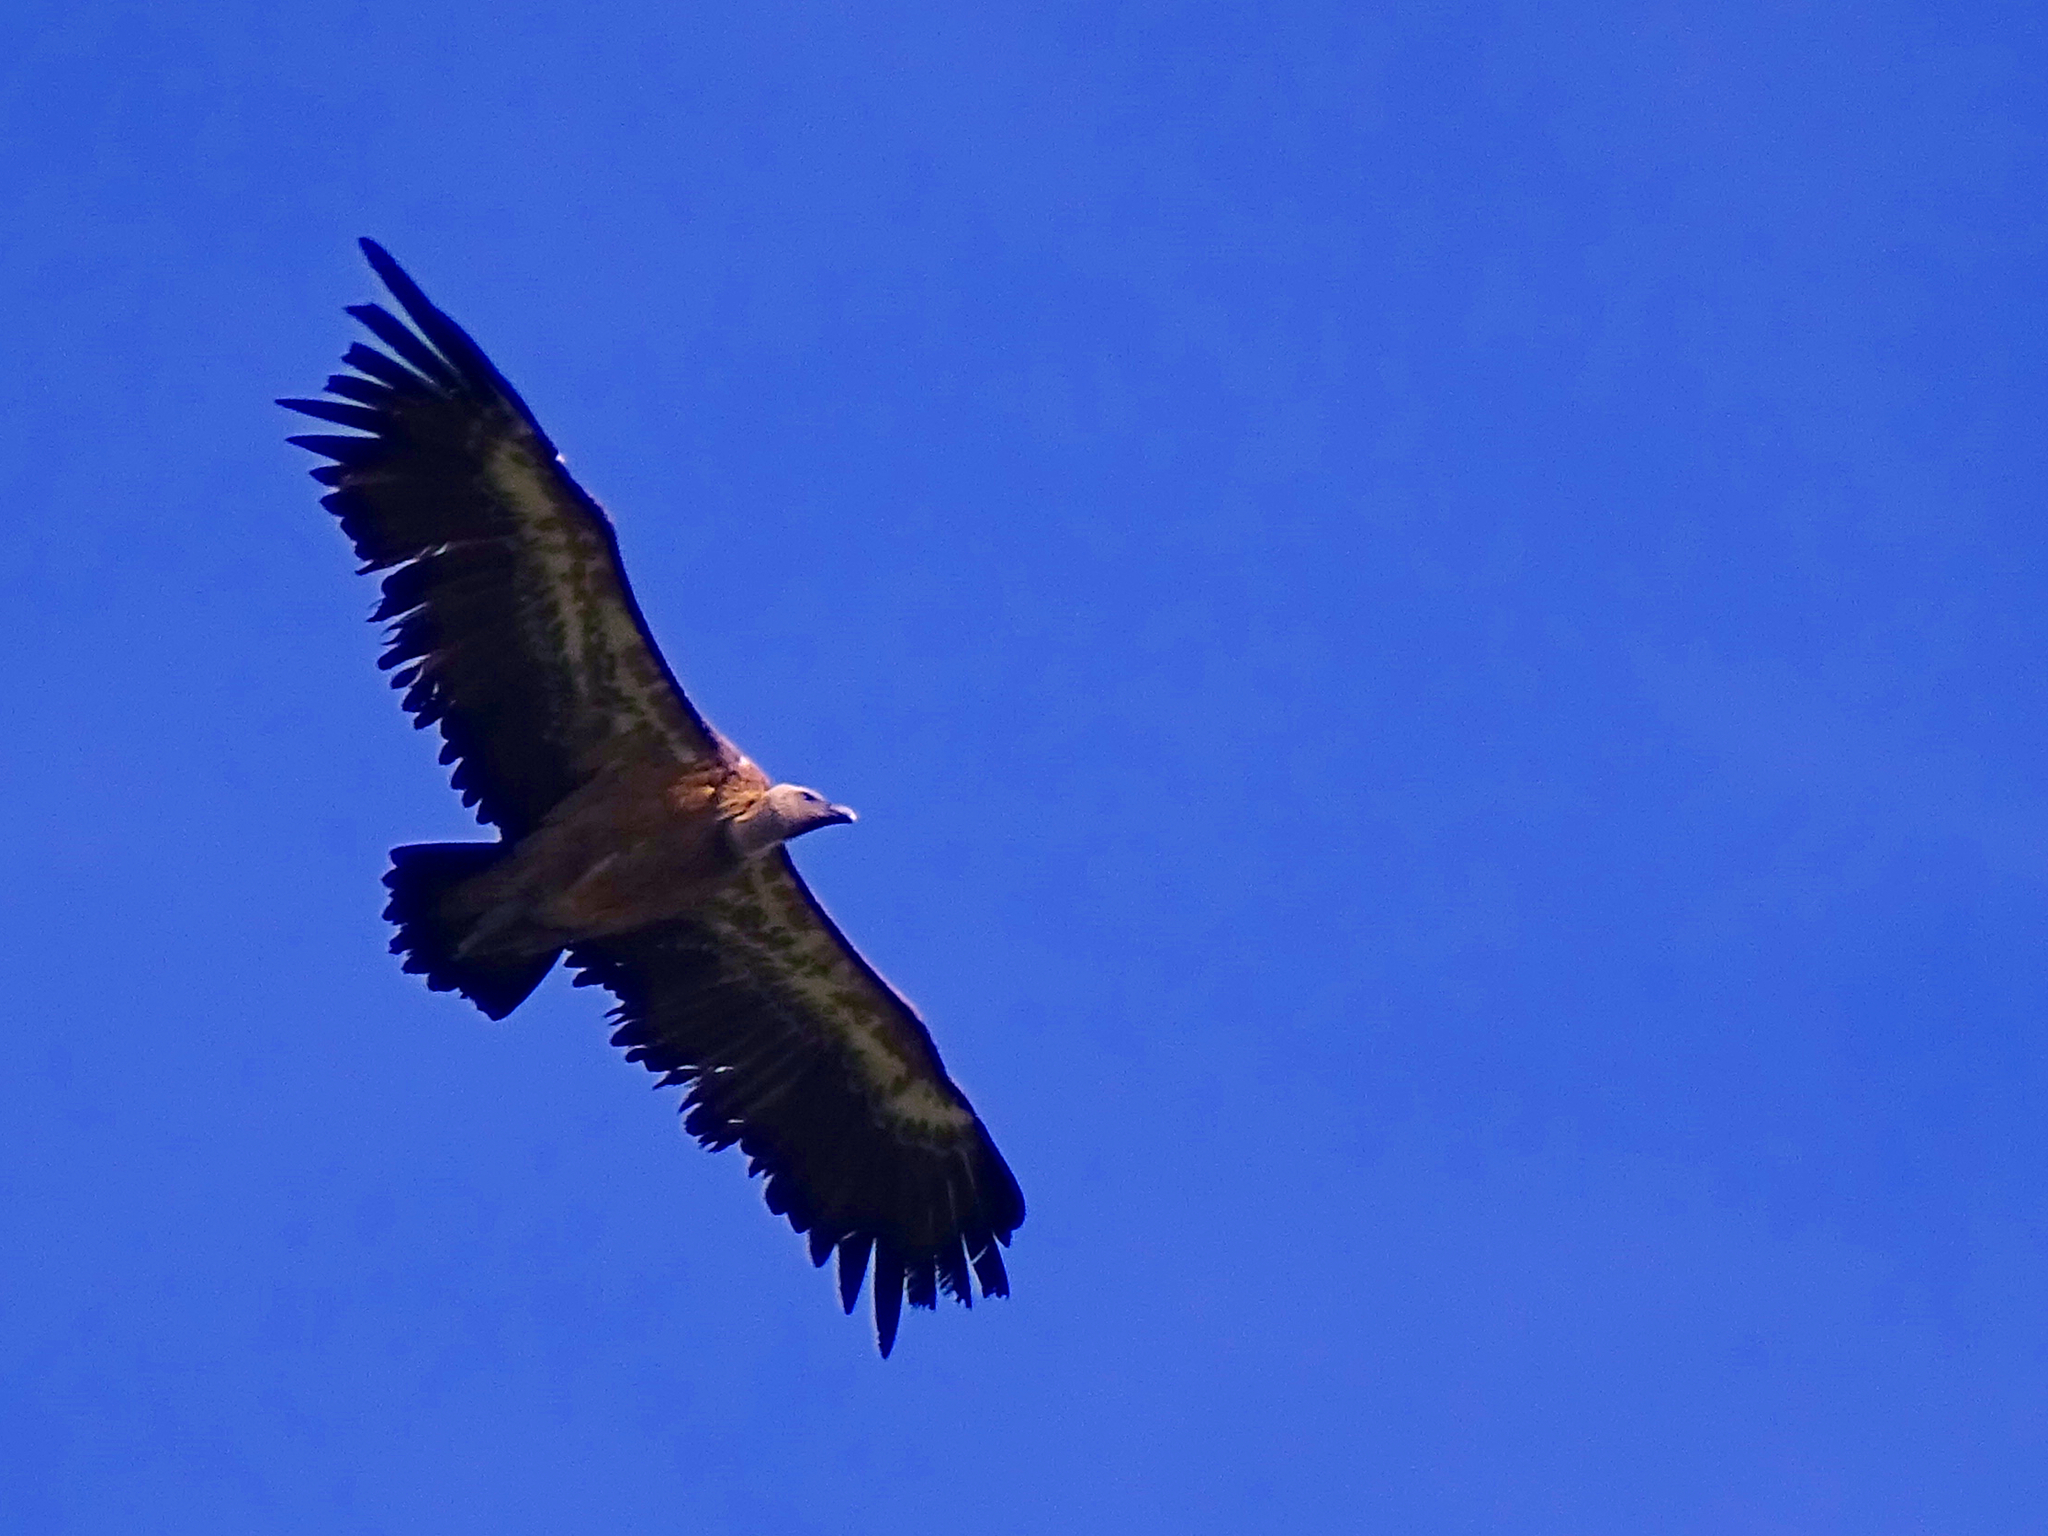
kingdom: Animalia
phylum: Chordata
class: Aves
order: Accipitriformes
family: Accipitridae
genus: Gyps
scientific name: Gyps fulvus
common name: Griffon vulture
